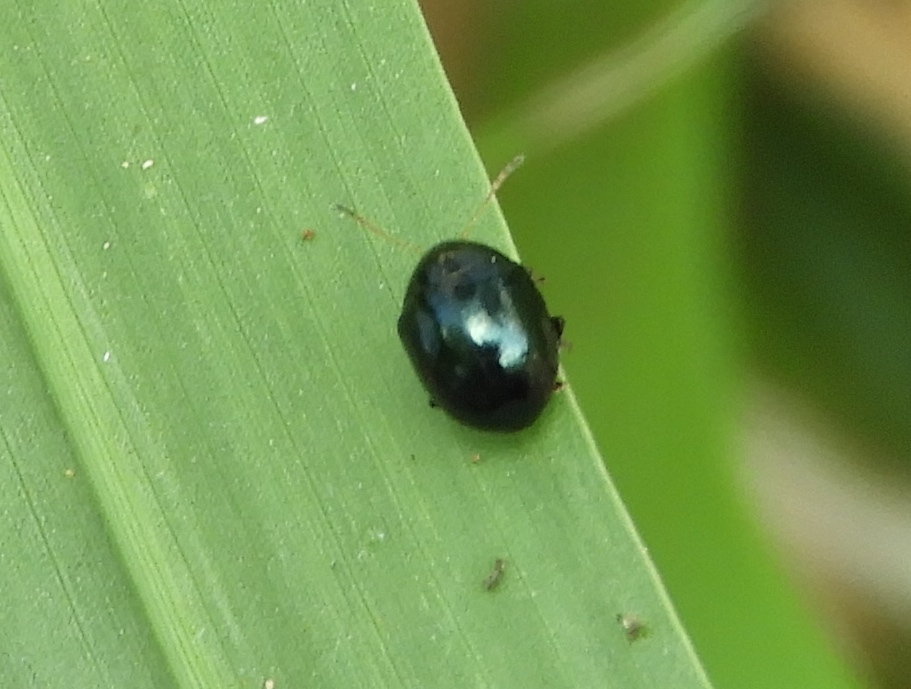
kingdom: Animalia
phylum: Arthropoda
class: Insecta
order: Coleoptera
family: Chrysomelidae
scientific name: Chrysomelidae
